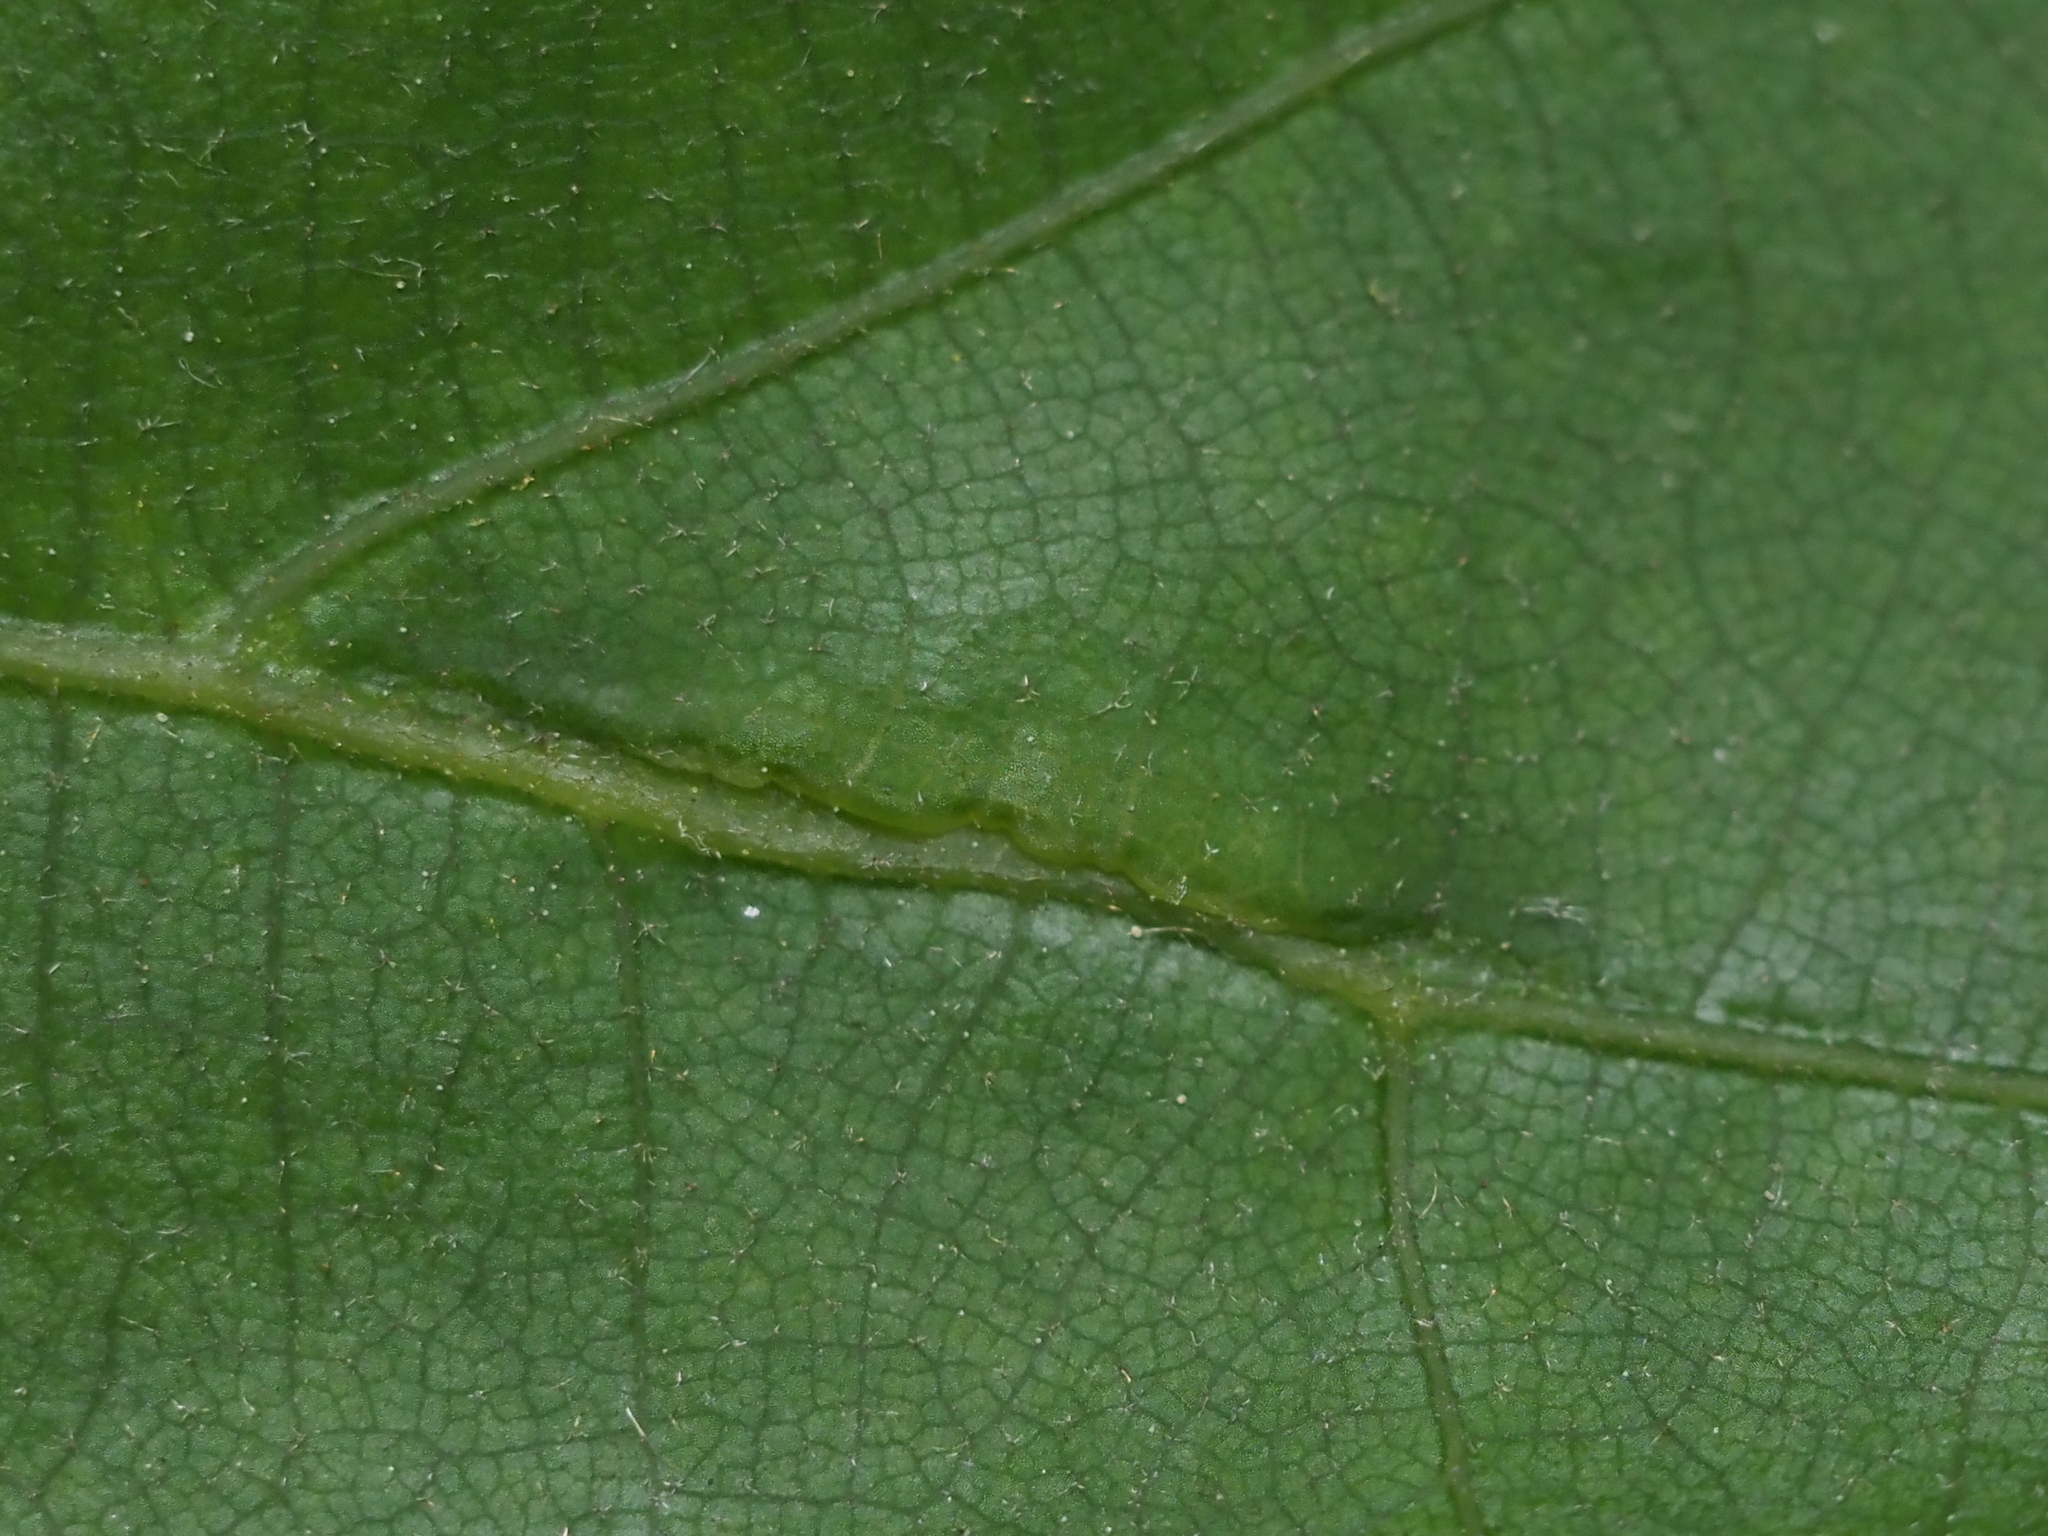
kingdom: Animalia
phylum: Arthropoda
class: Insecta
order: Diptera
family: Cecidomyiidae
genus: Macrodiplosis
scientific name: Macrodiplosis majalis
